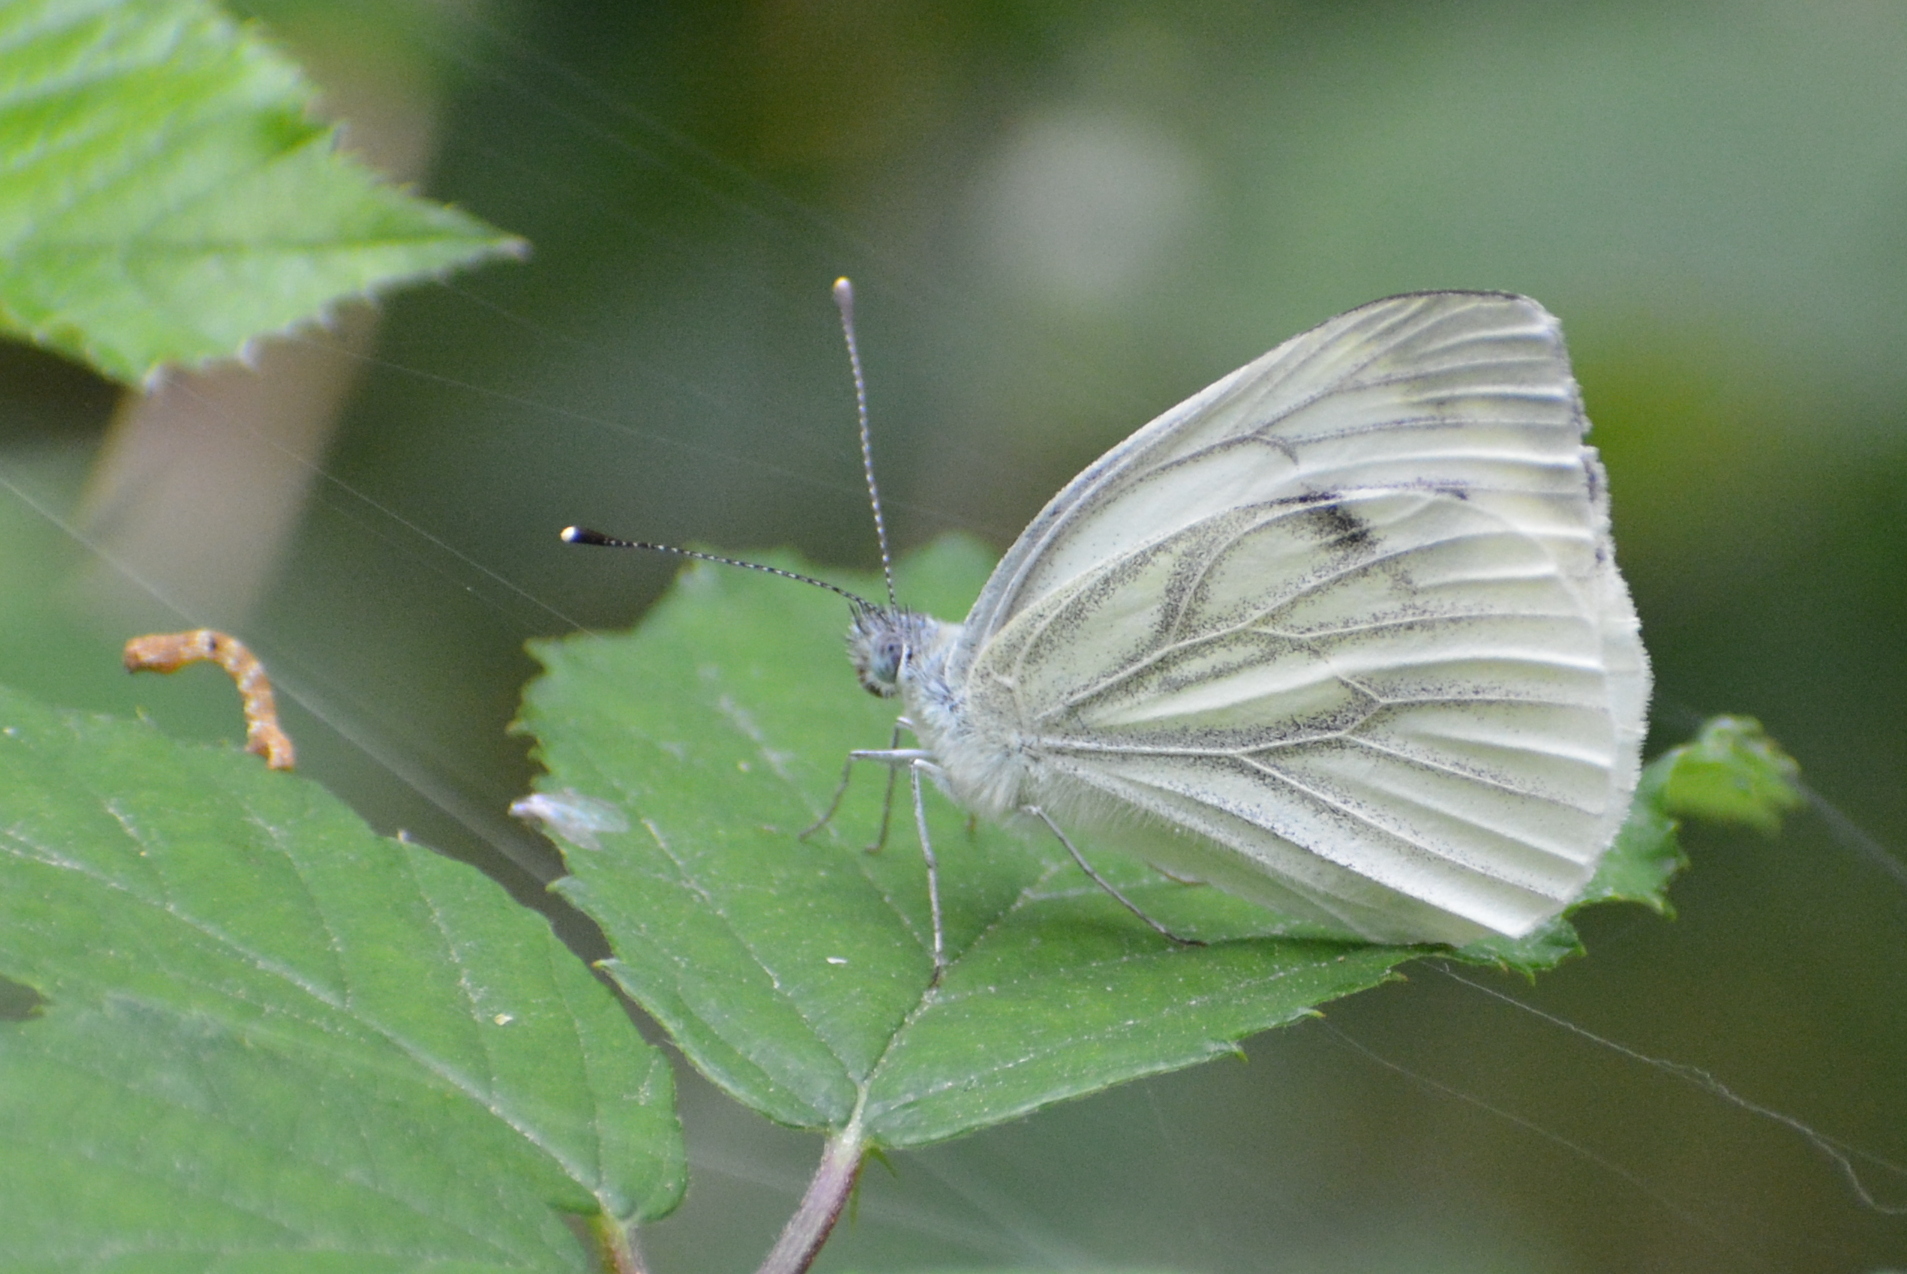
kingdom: Animalia
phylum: Arthropoda
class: Insecta
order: Lepidoptera
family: Pieridae
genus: Pieris
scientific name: Pieris napi
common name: Green-veined white
